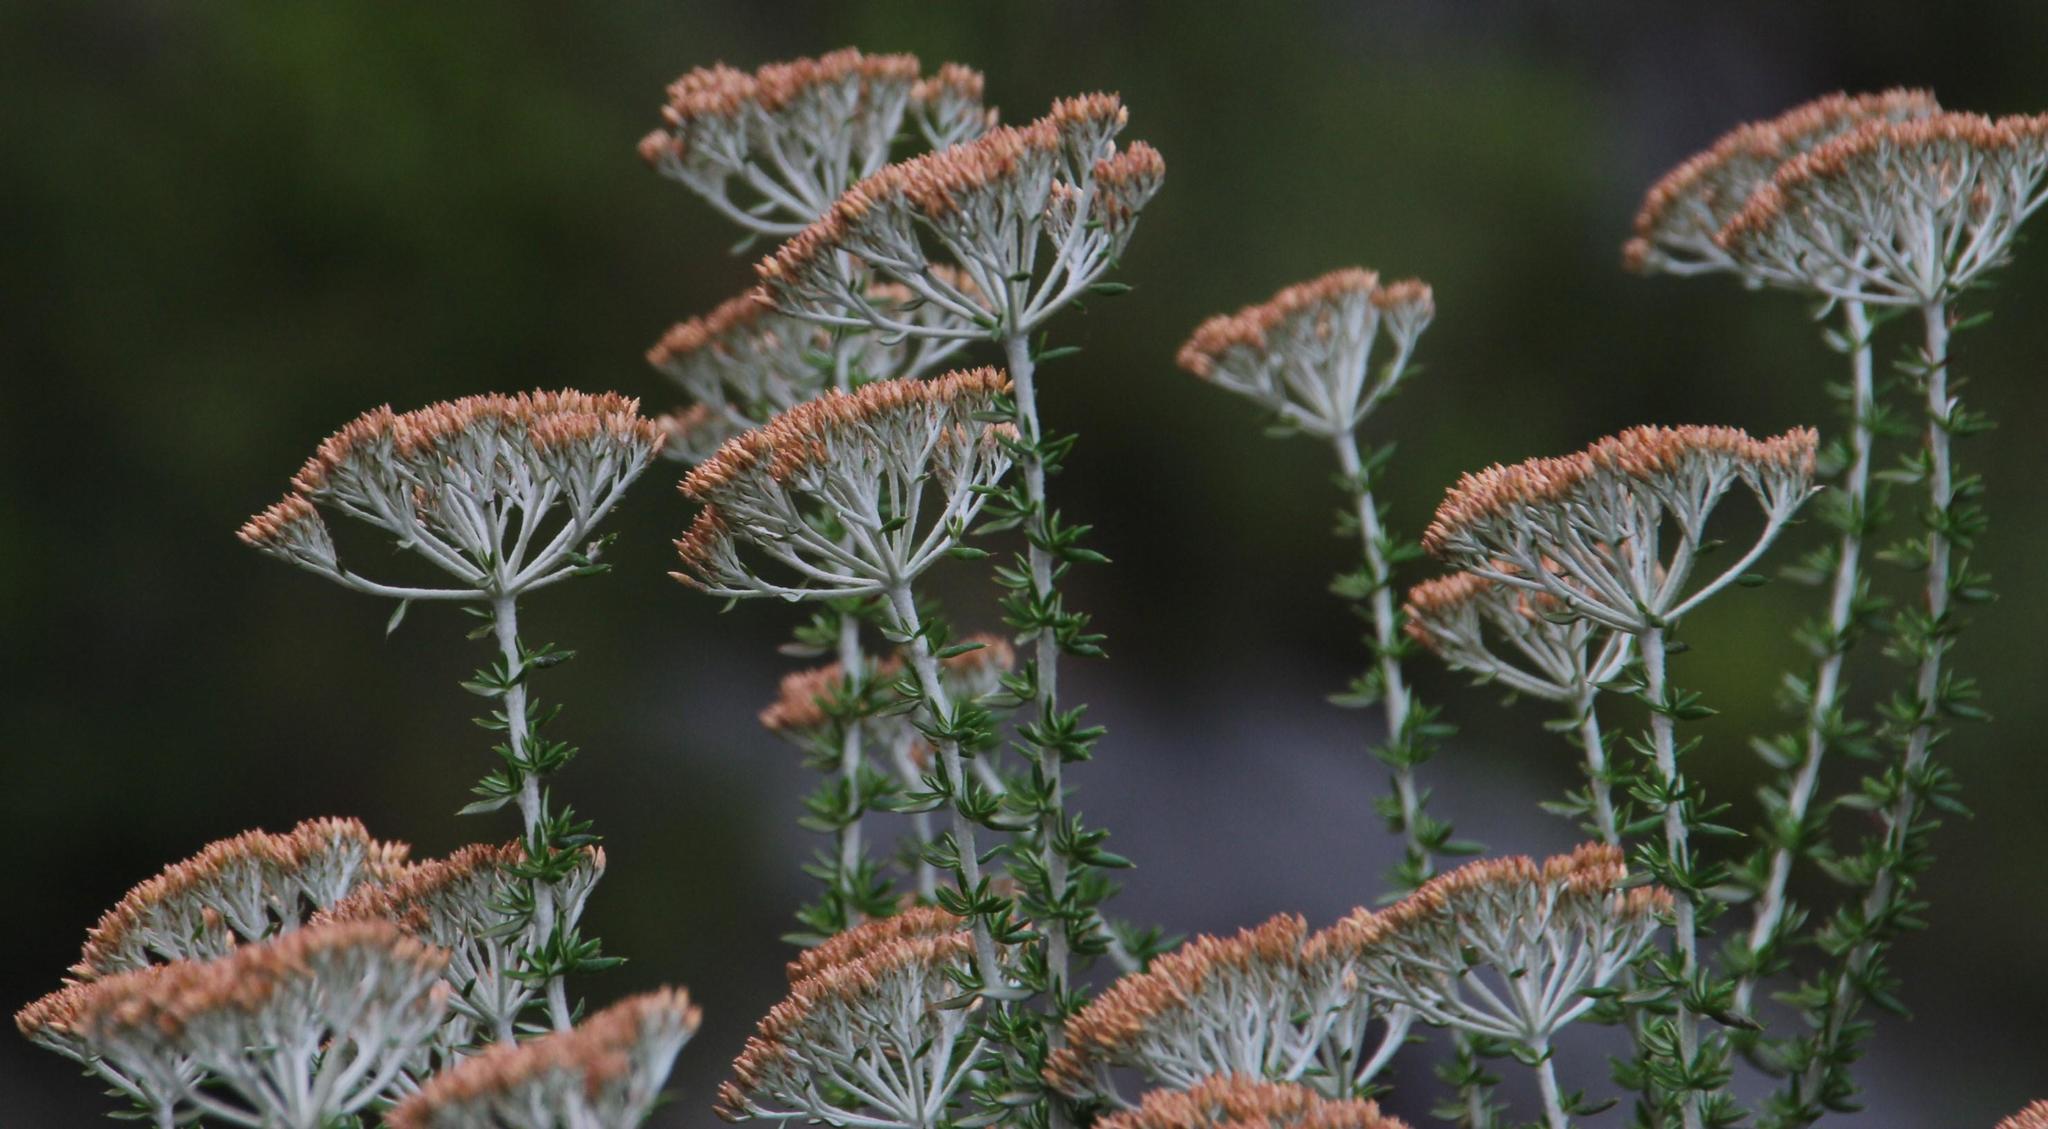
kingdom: Plantae
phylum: Tracheophyta
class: Magnoliopsida
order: Asterales
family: Asteraceae
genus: Metalasia
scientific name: Metalasia densa
